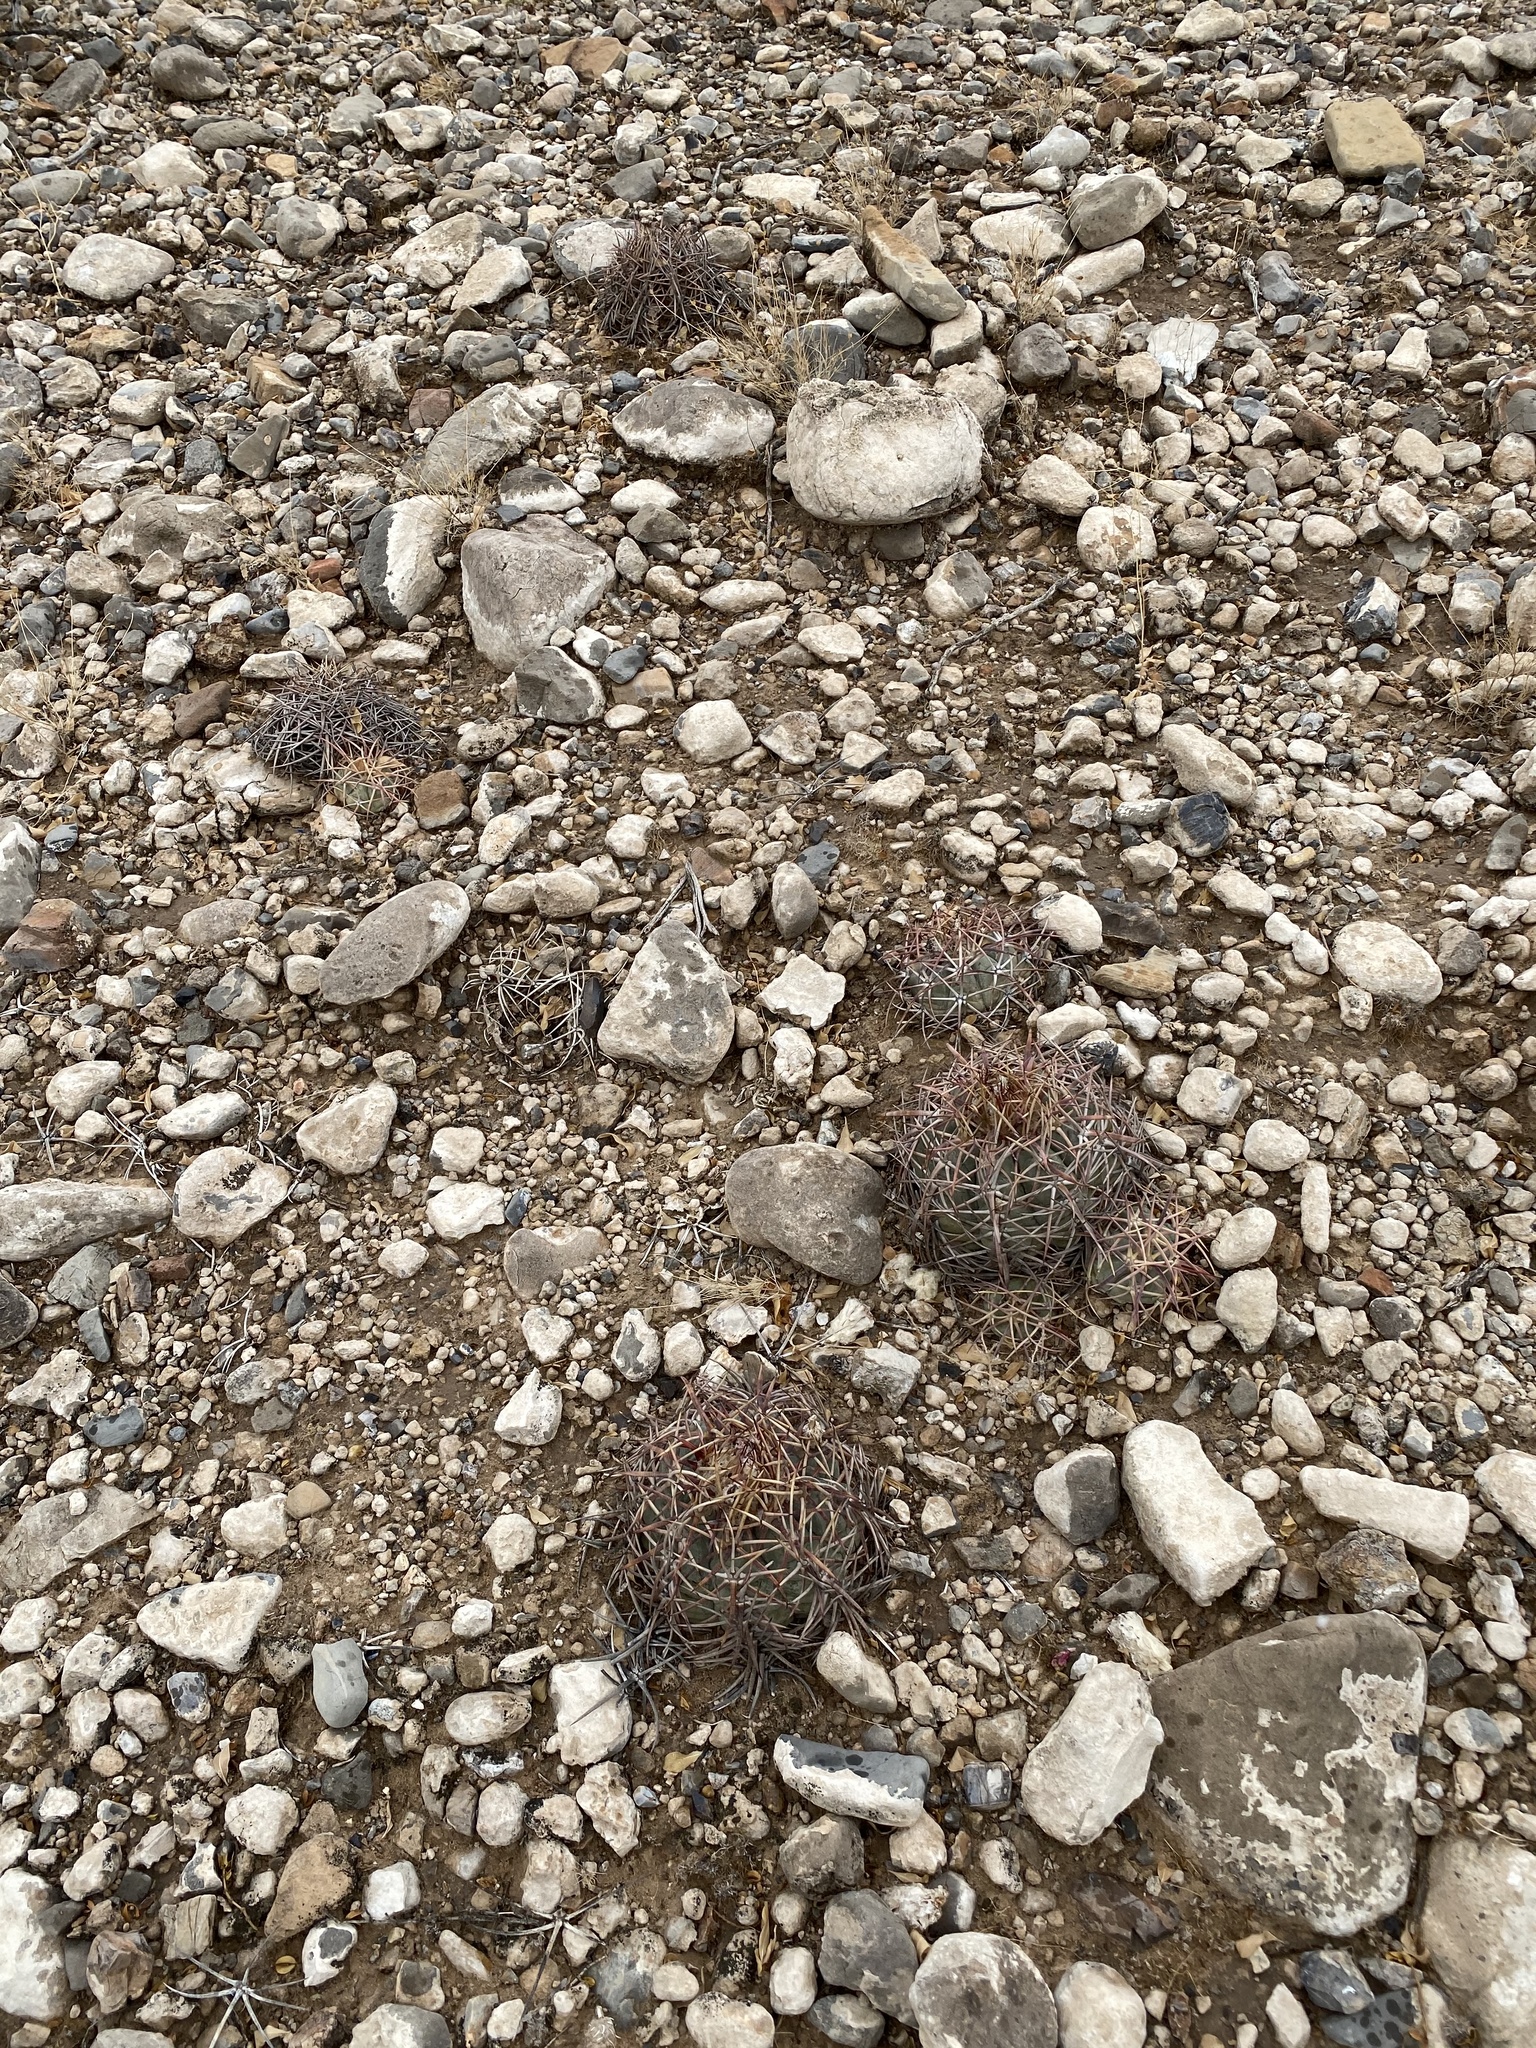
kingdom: Plantae
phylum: Tracheophyta
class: Magnoliopsida
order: Caryophyllales
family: Cactaceae
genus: Echinocactus
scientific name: Echinocactus horizonthalonius
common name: Devilshead
